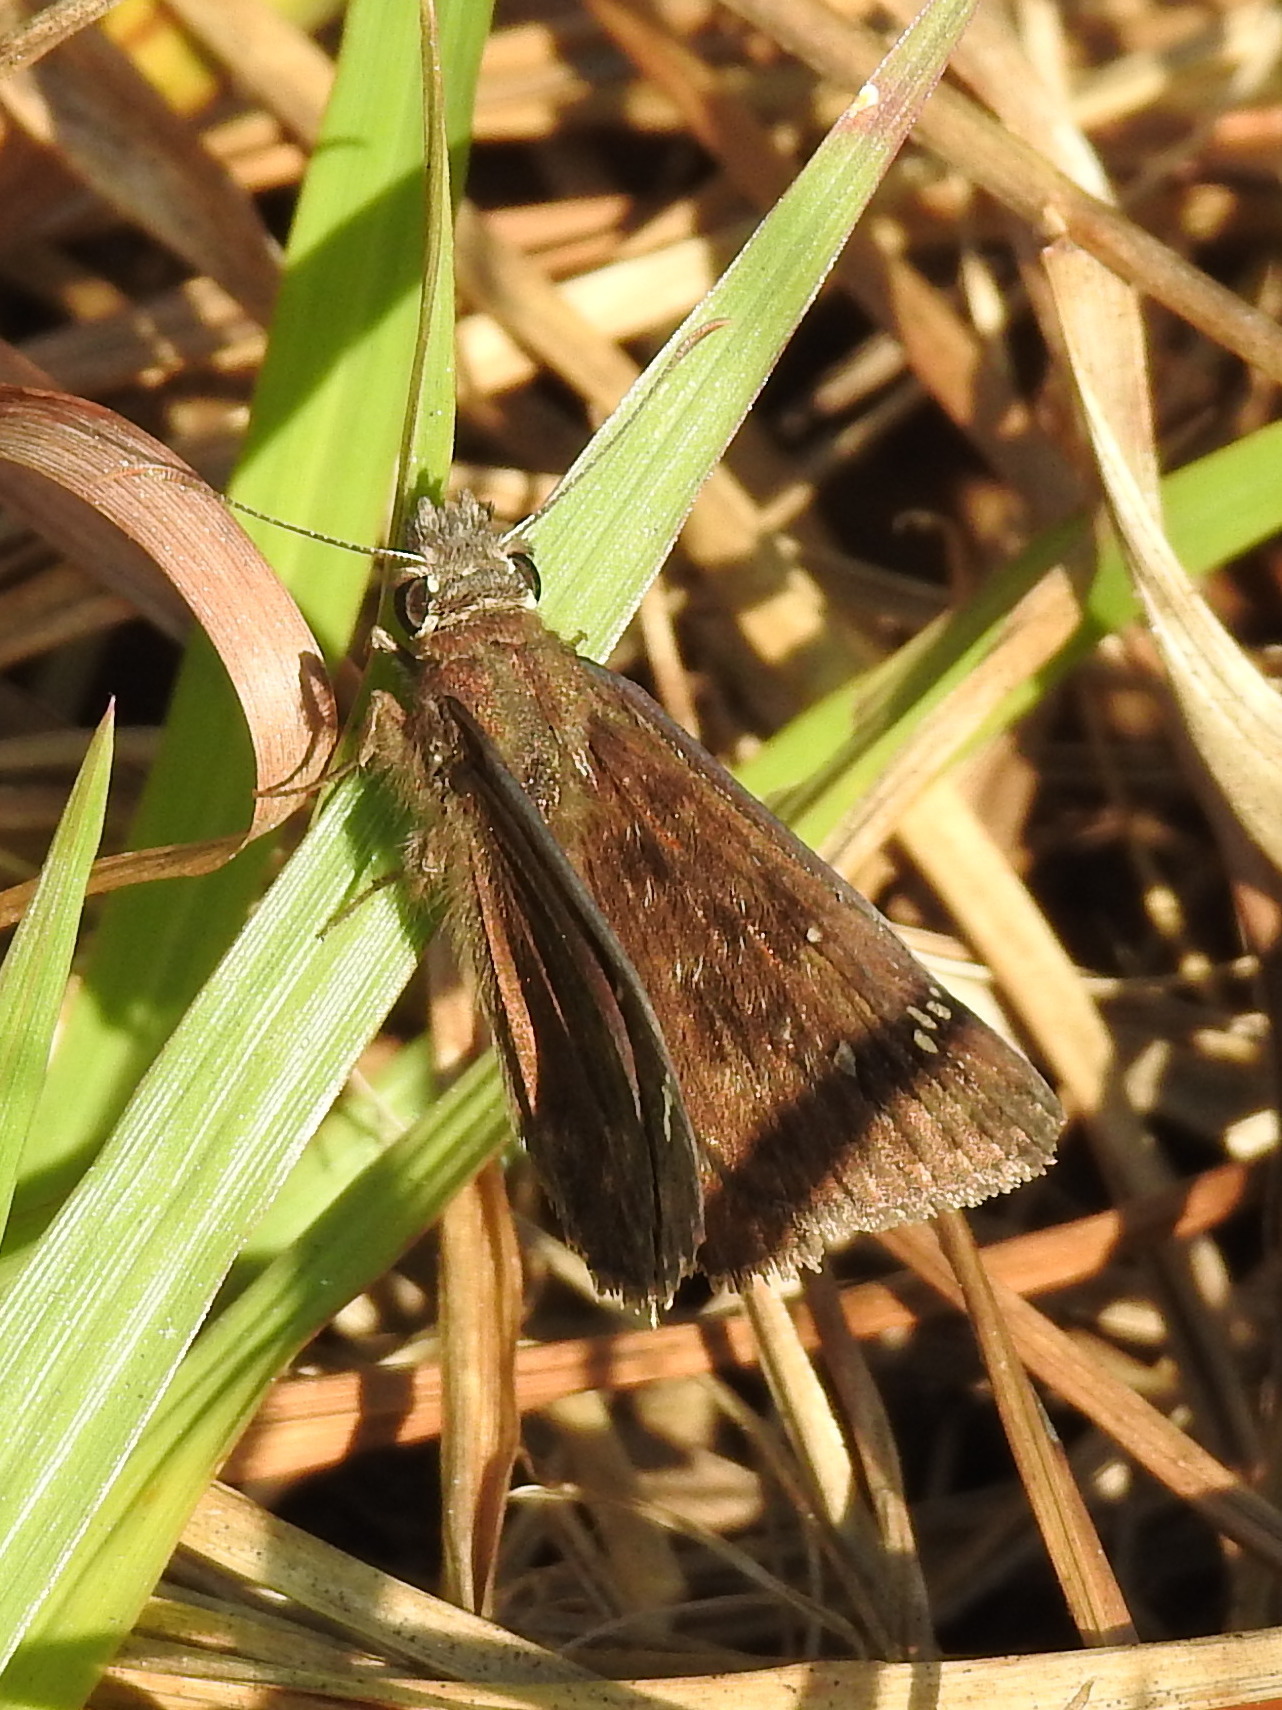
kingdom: Animalia
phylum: Arthropoda
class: Insecta
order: Lepidoptera
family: Hesperiidae
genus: Erynnis
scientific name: Erynnis horatius
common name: Horace's duskywing
